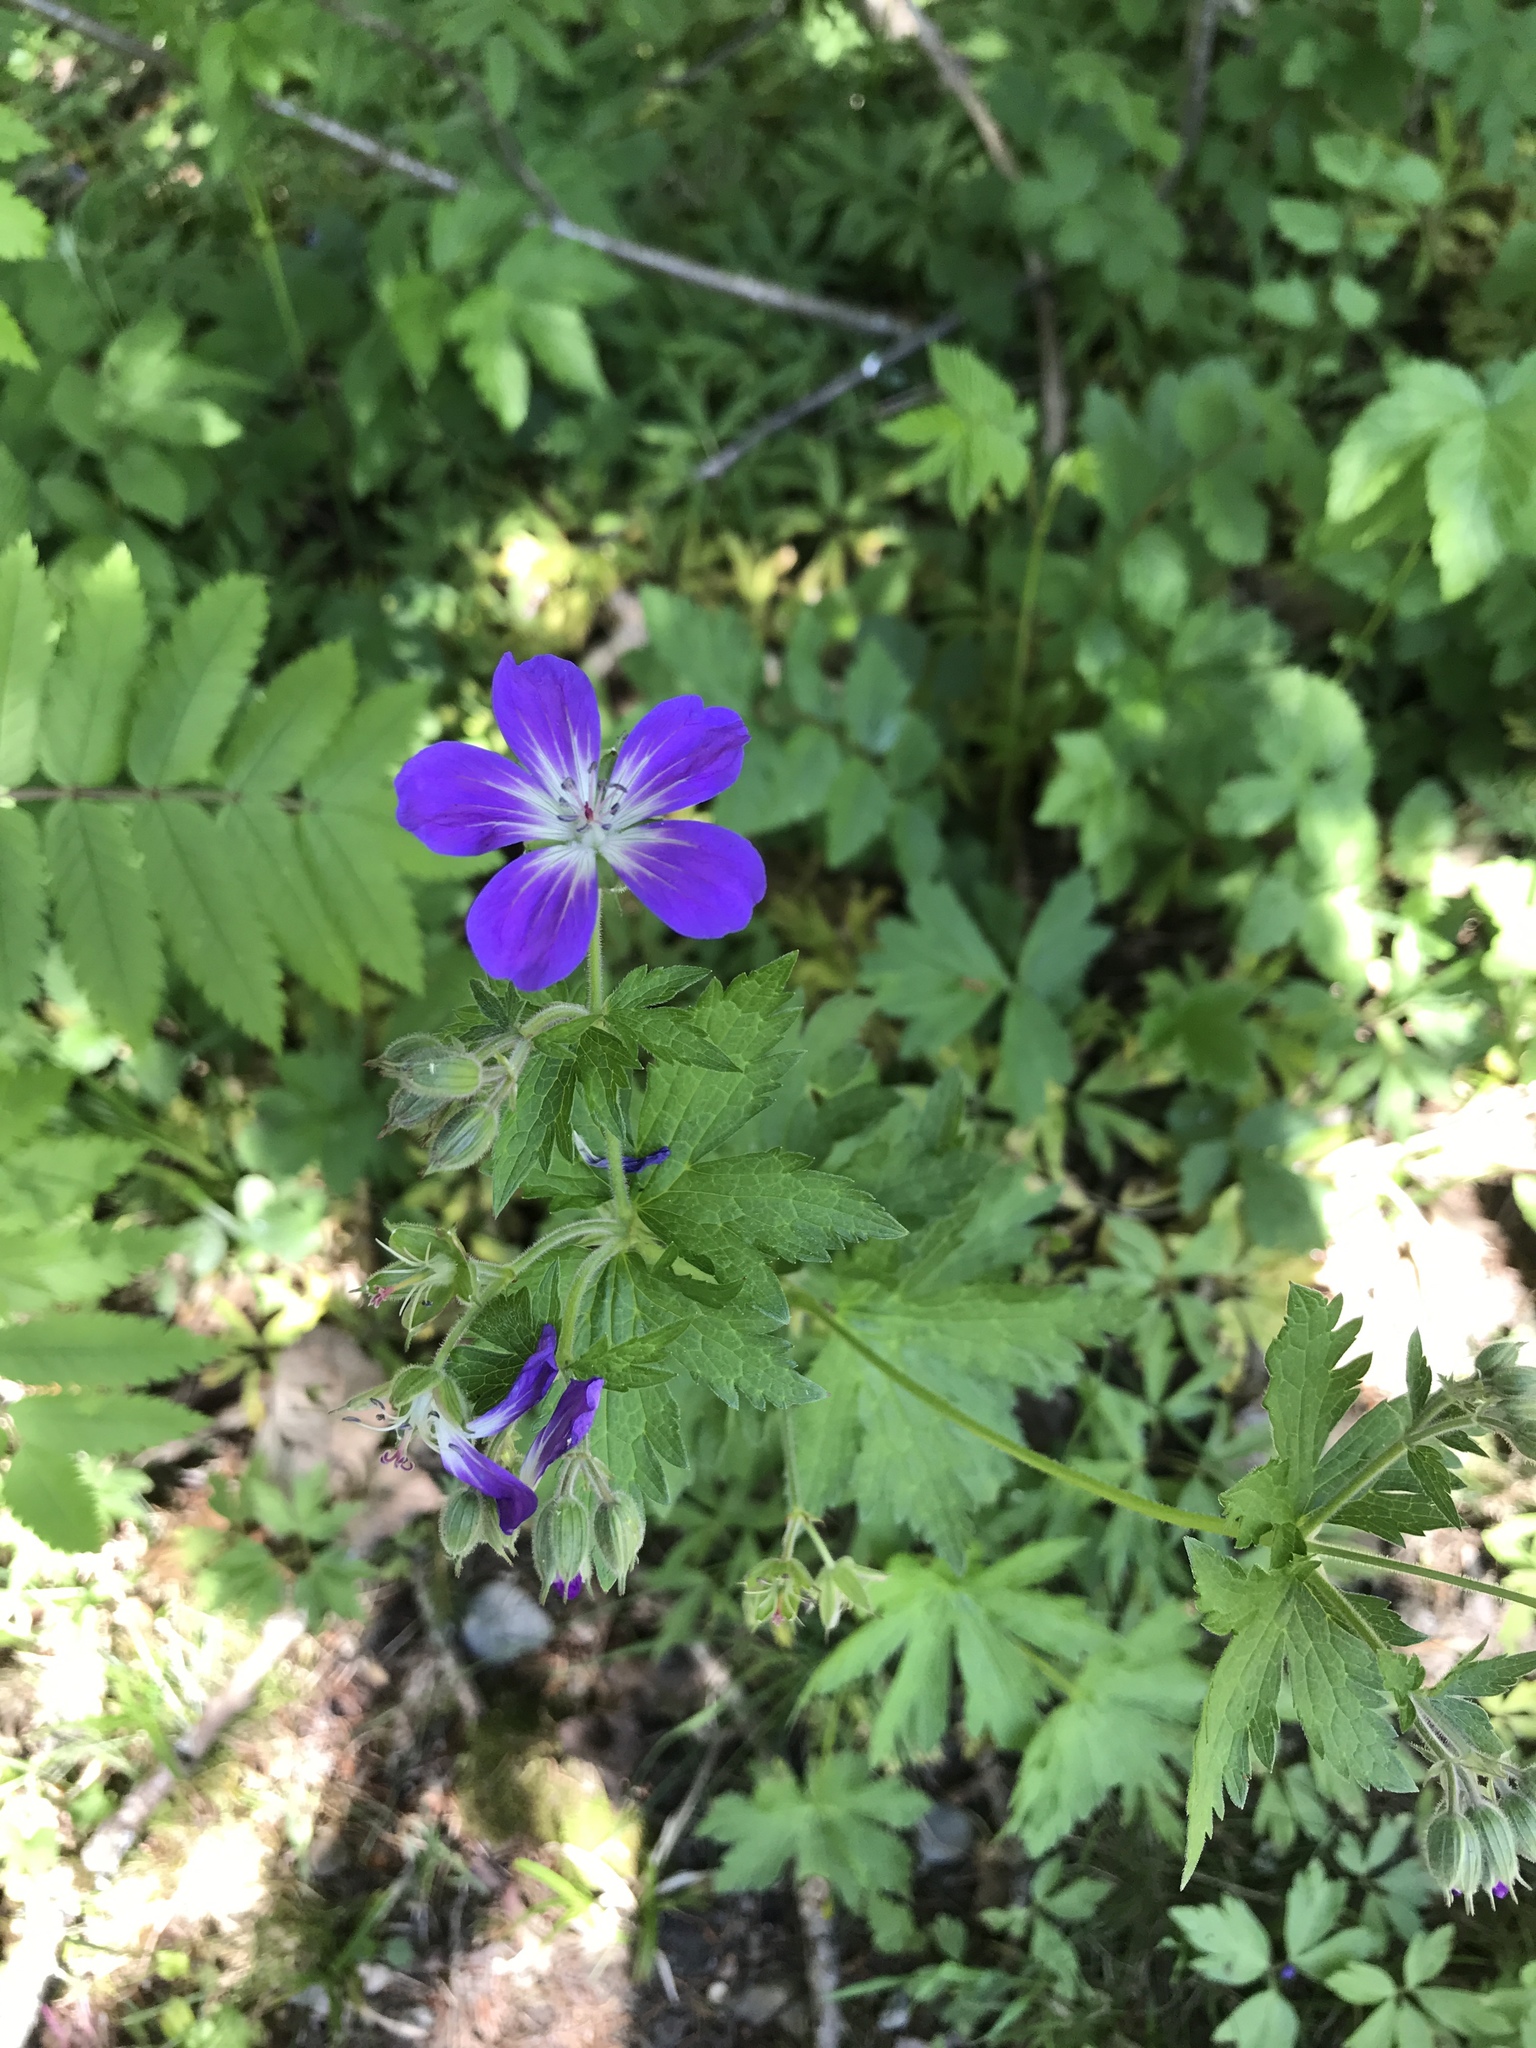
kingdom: Plantae
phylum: Tracheophyta
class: Magnoliopsida
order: Geraniales
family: Geraniaceae
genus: Geranium
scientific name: Geranium sylvaticum
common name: Wood crane's-bill
